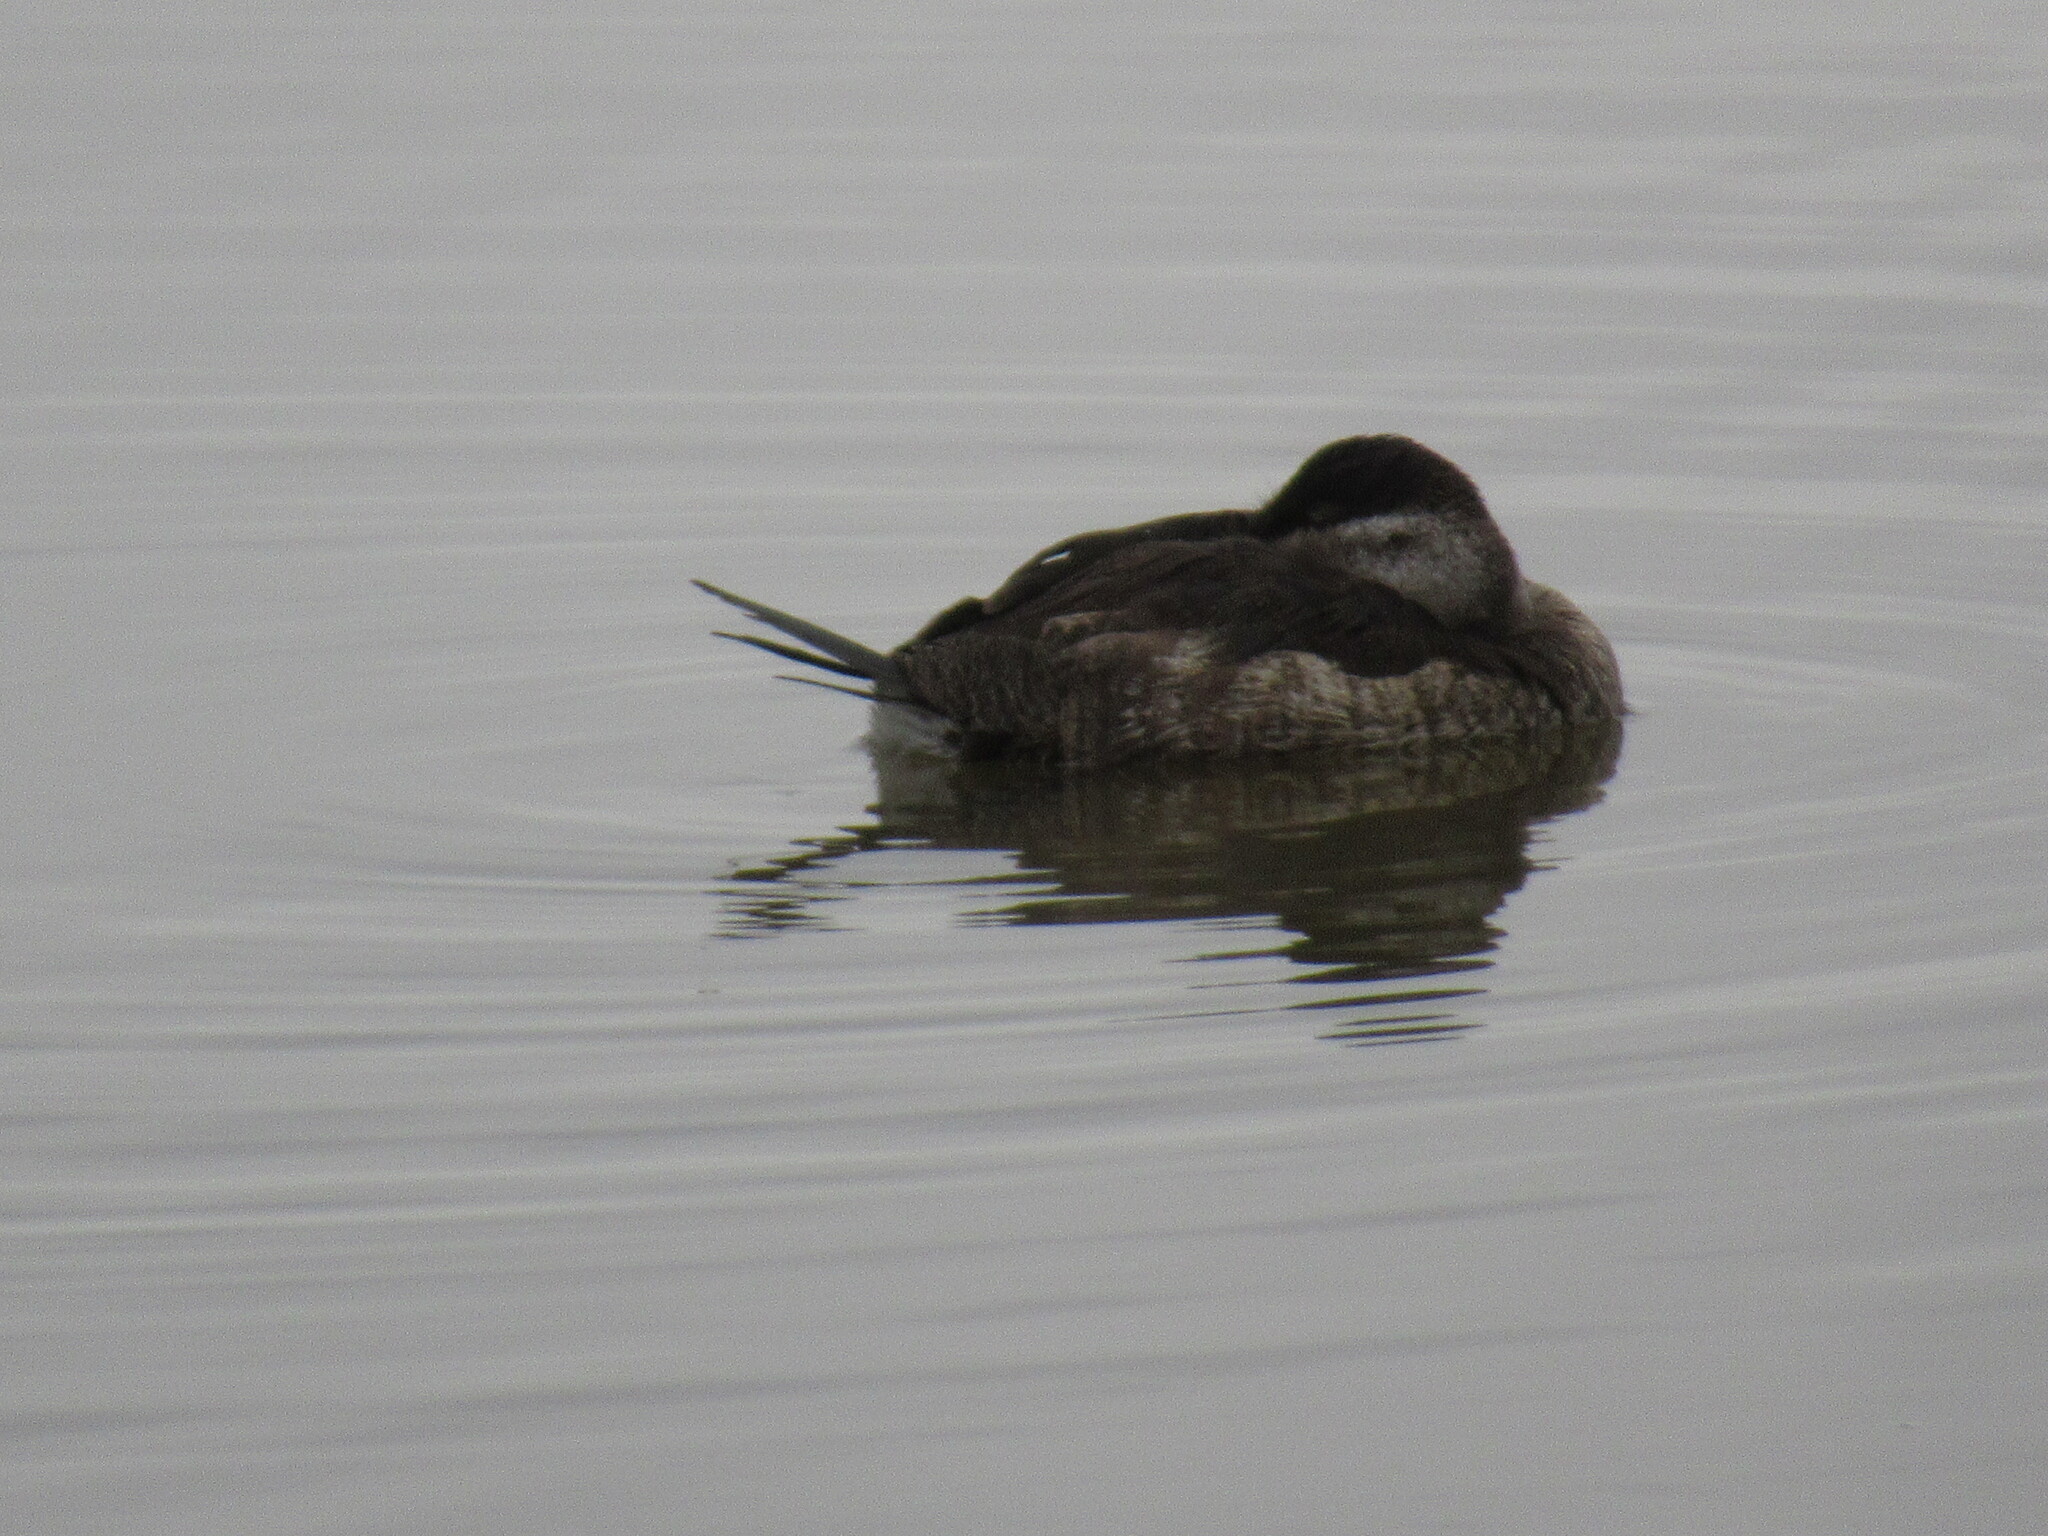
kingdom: Animalia
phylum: Chordata
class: Aves
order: Anseriformes
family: Anatidae
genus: Oxyura
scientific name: Oxyura jamaicensis
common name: Ruddy duck
